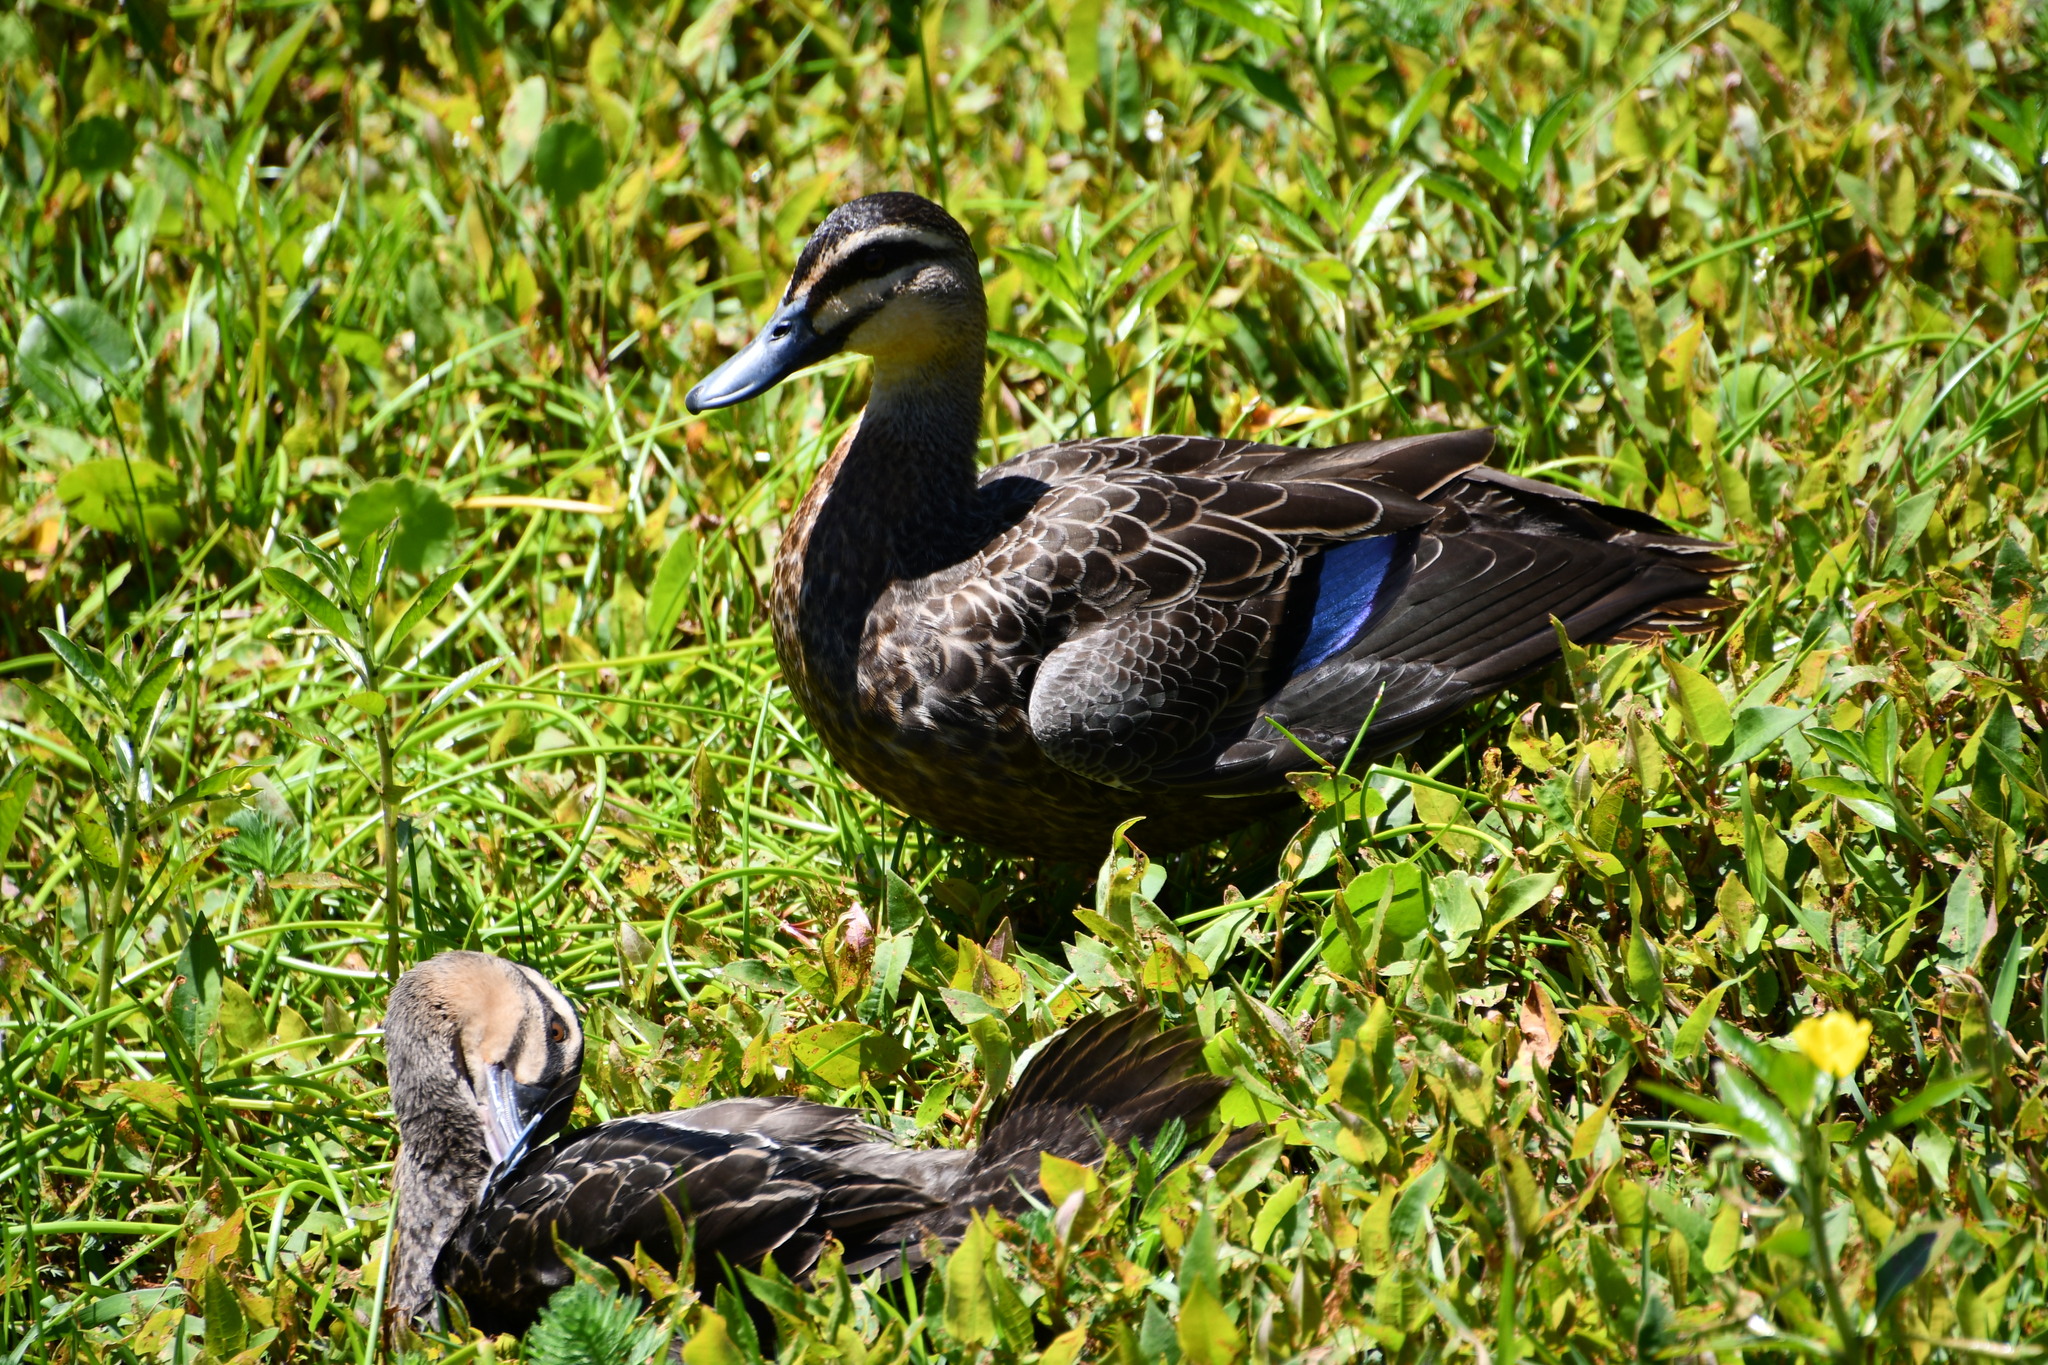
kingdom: Animalia
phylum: Chordata
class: Aves
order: Anseriformes
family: Anatidae
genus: Anas
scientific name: Anas superciliosa
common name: Pacific black duck
